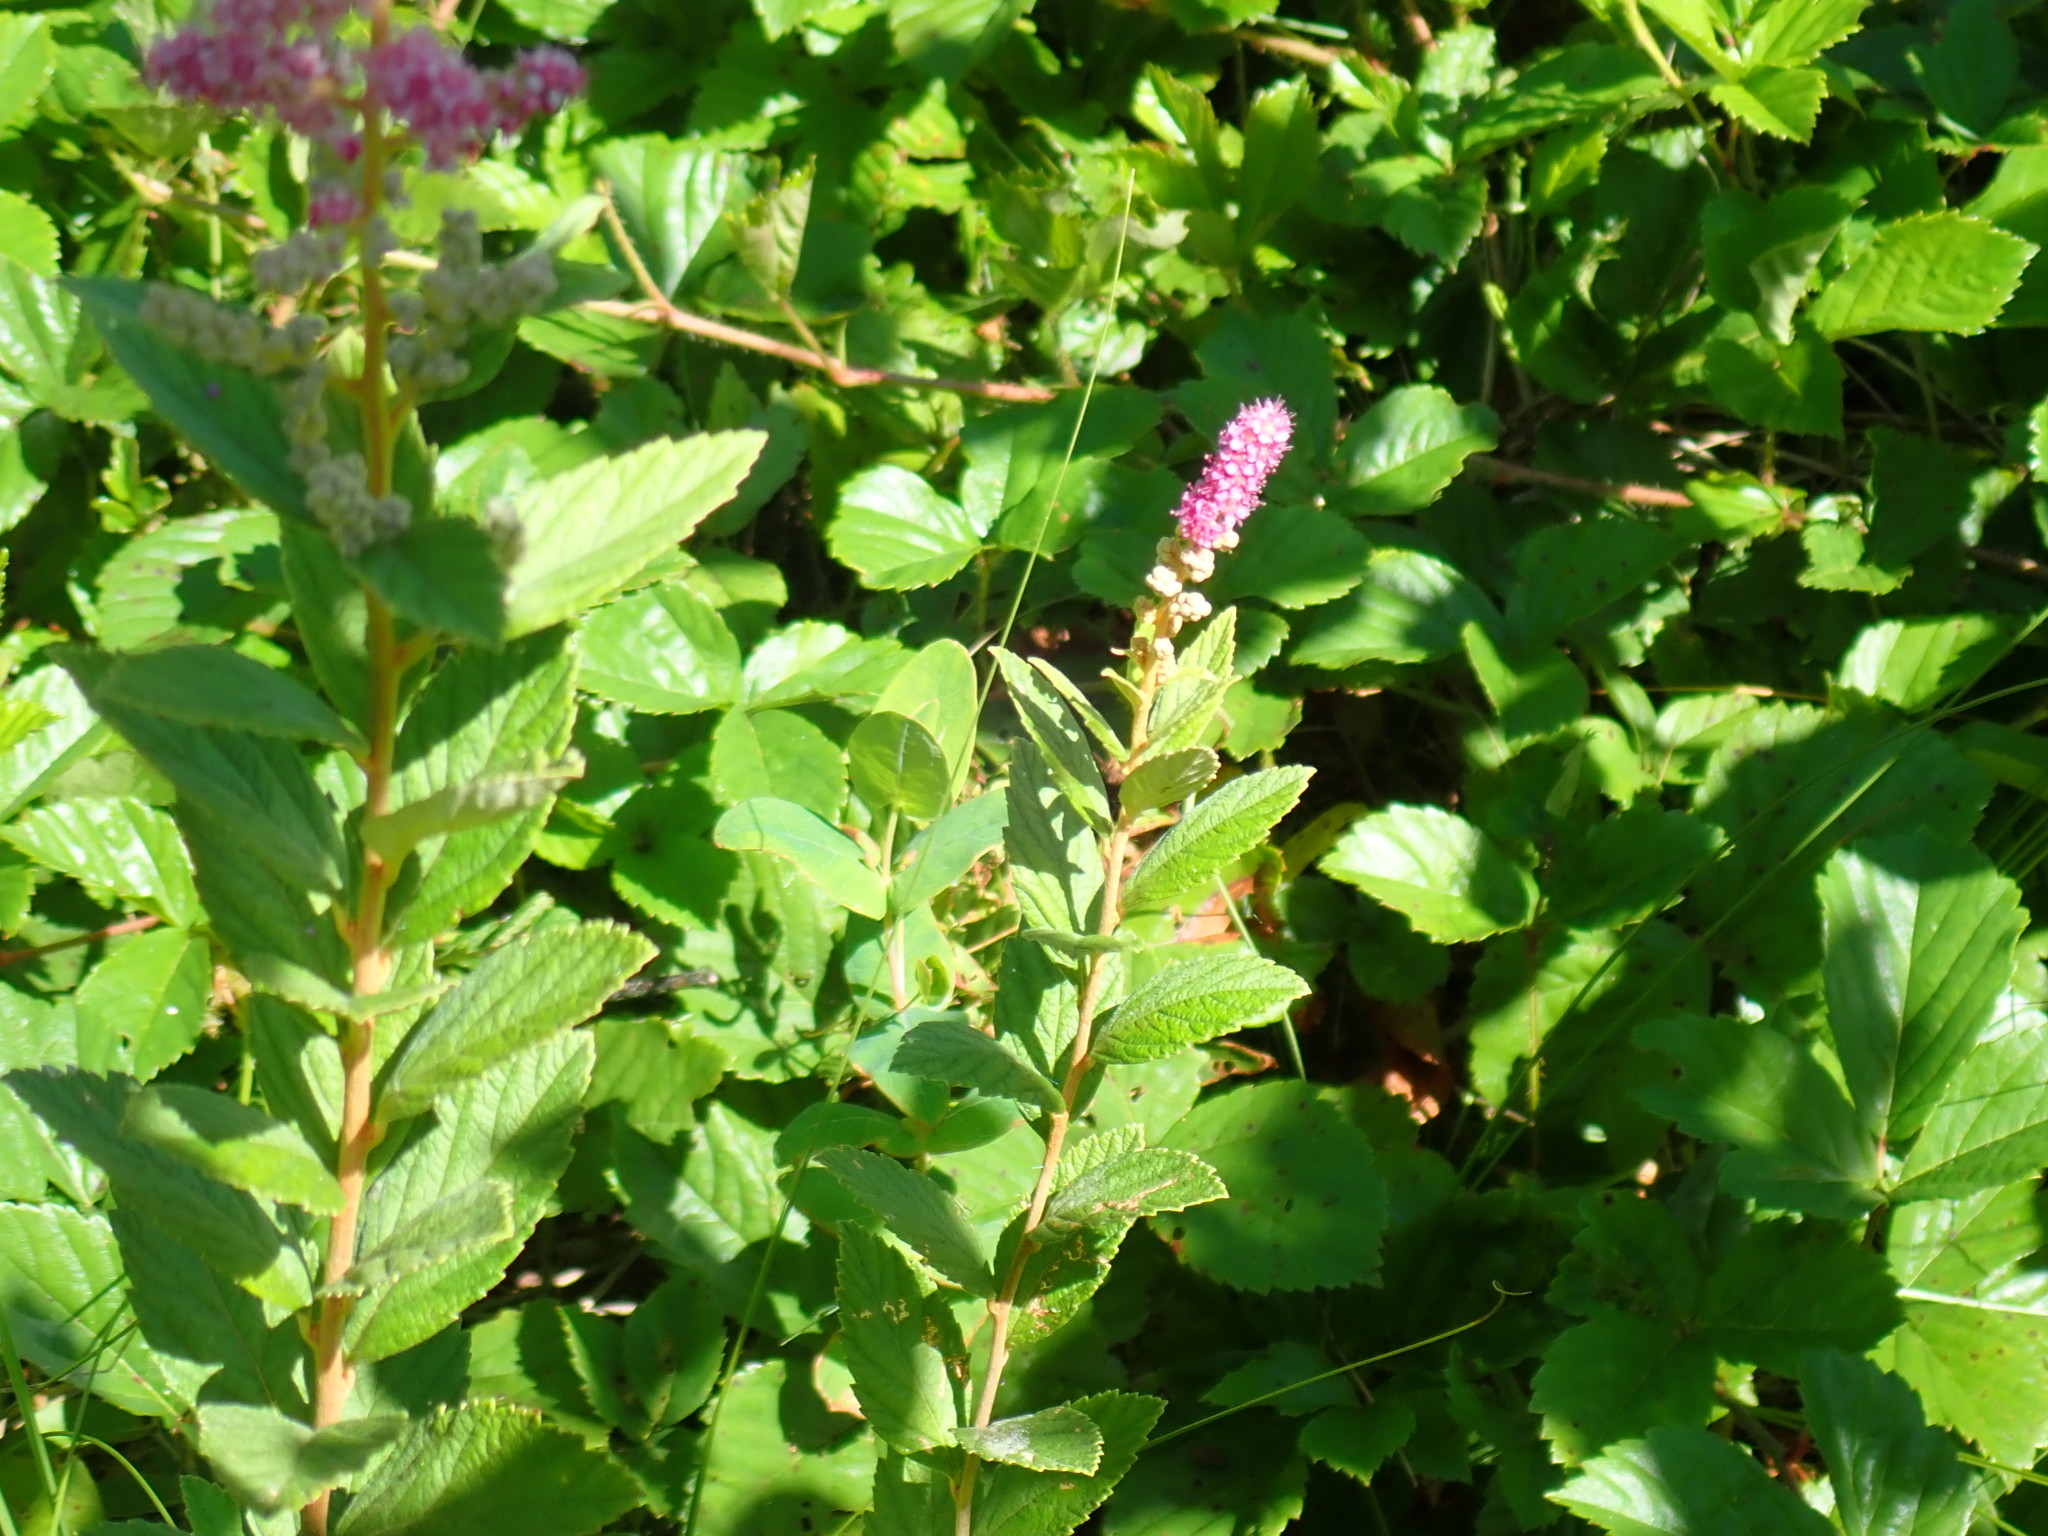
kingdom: Plantae
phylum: Tracheophyta
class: Magnoliopsida
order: Rosales
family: Rosaceae
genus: Spiraea
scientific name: Spiraea tomentosa
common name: Hardhack
